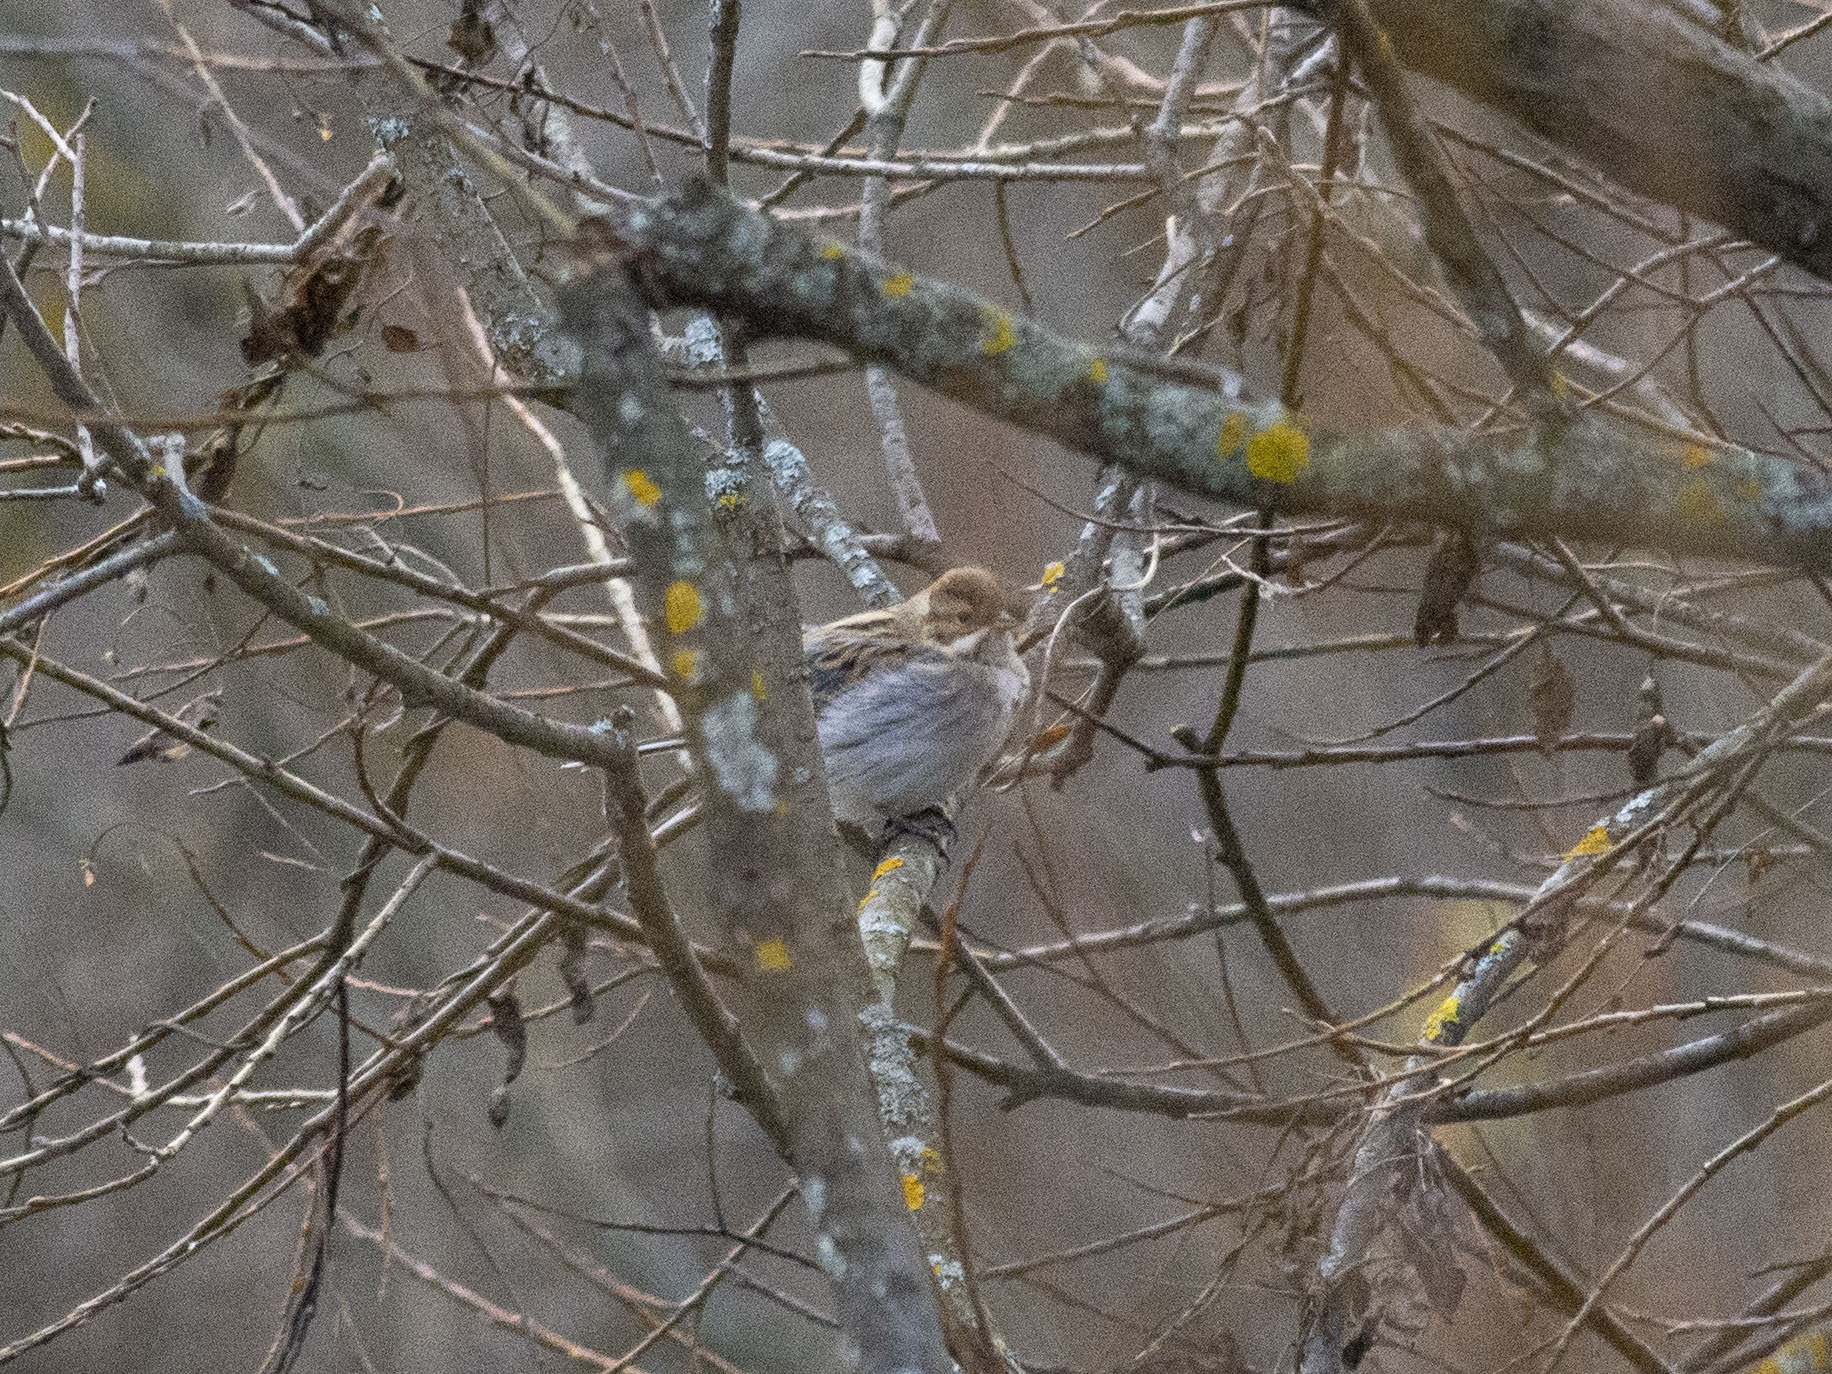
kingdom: Animalia
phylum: Chordata
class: Aves
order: Passeriformes
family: Emberizidae
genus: Emberiza
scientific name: Emberiza schoeniclus
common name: Reed bunting
